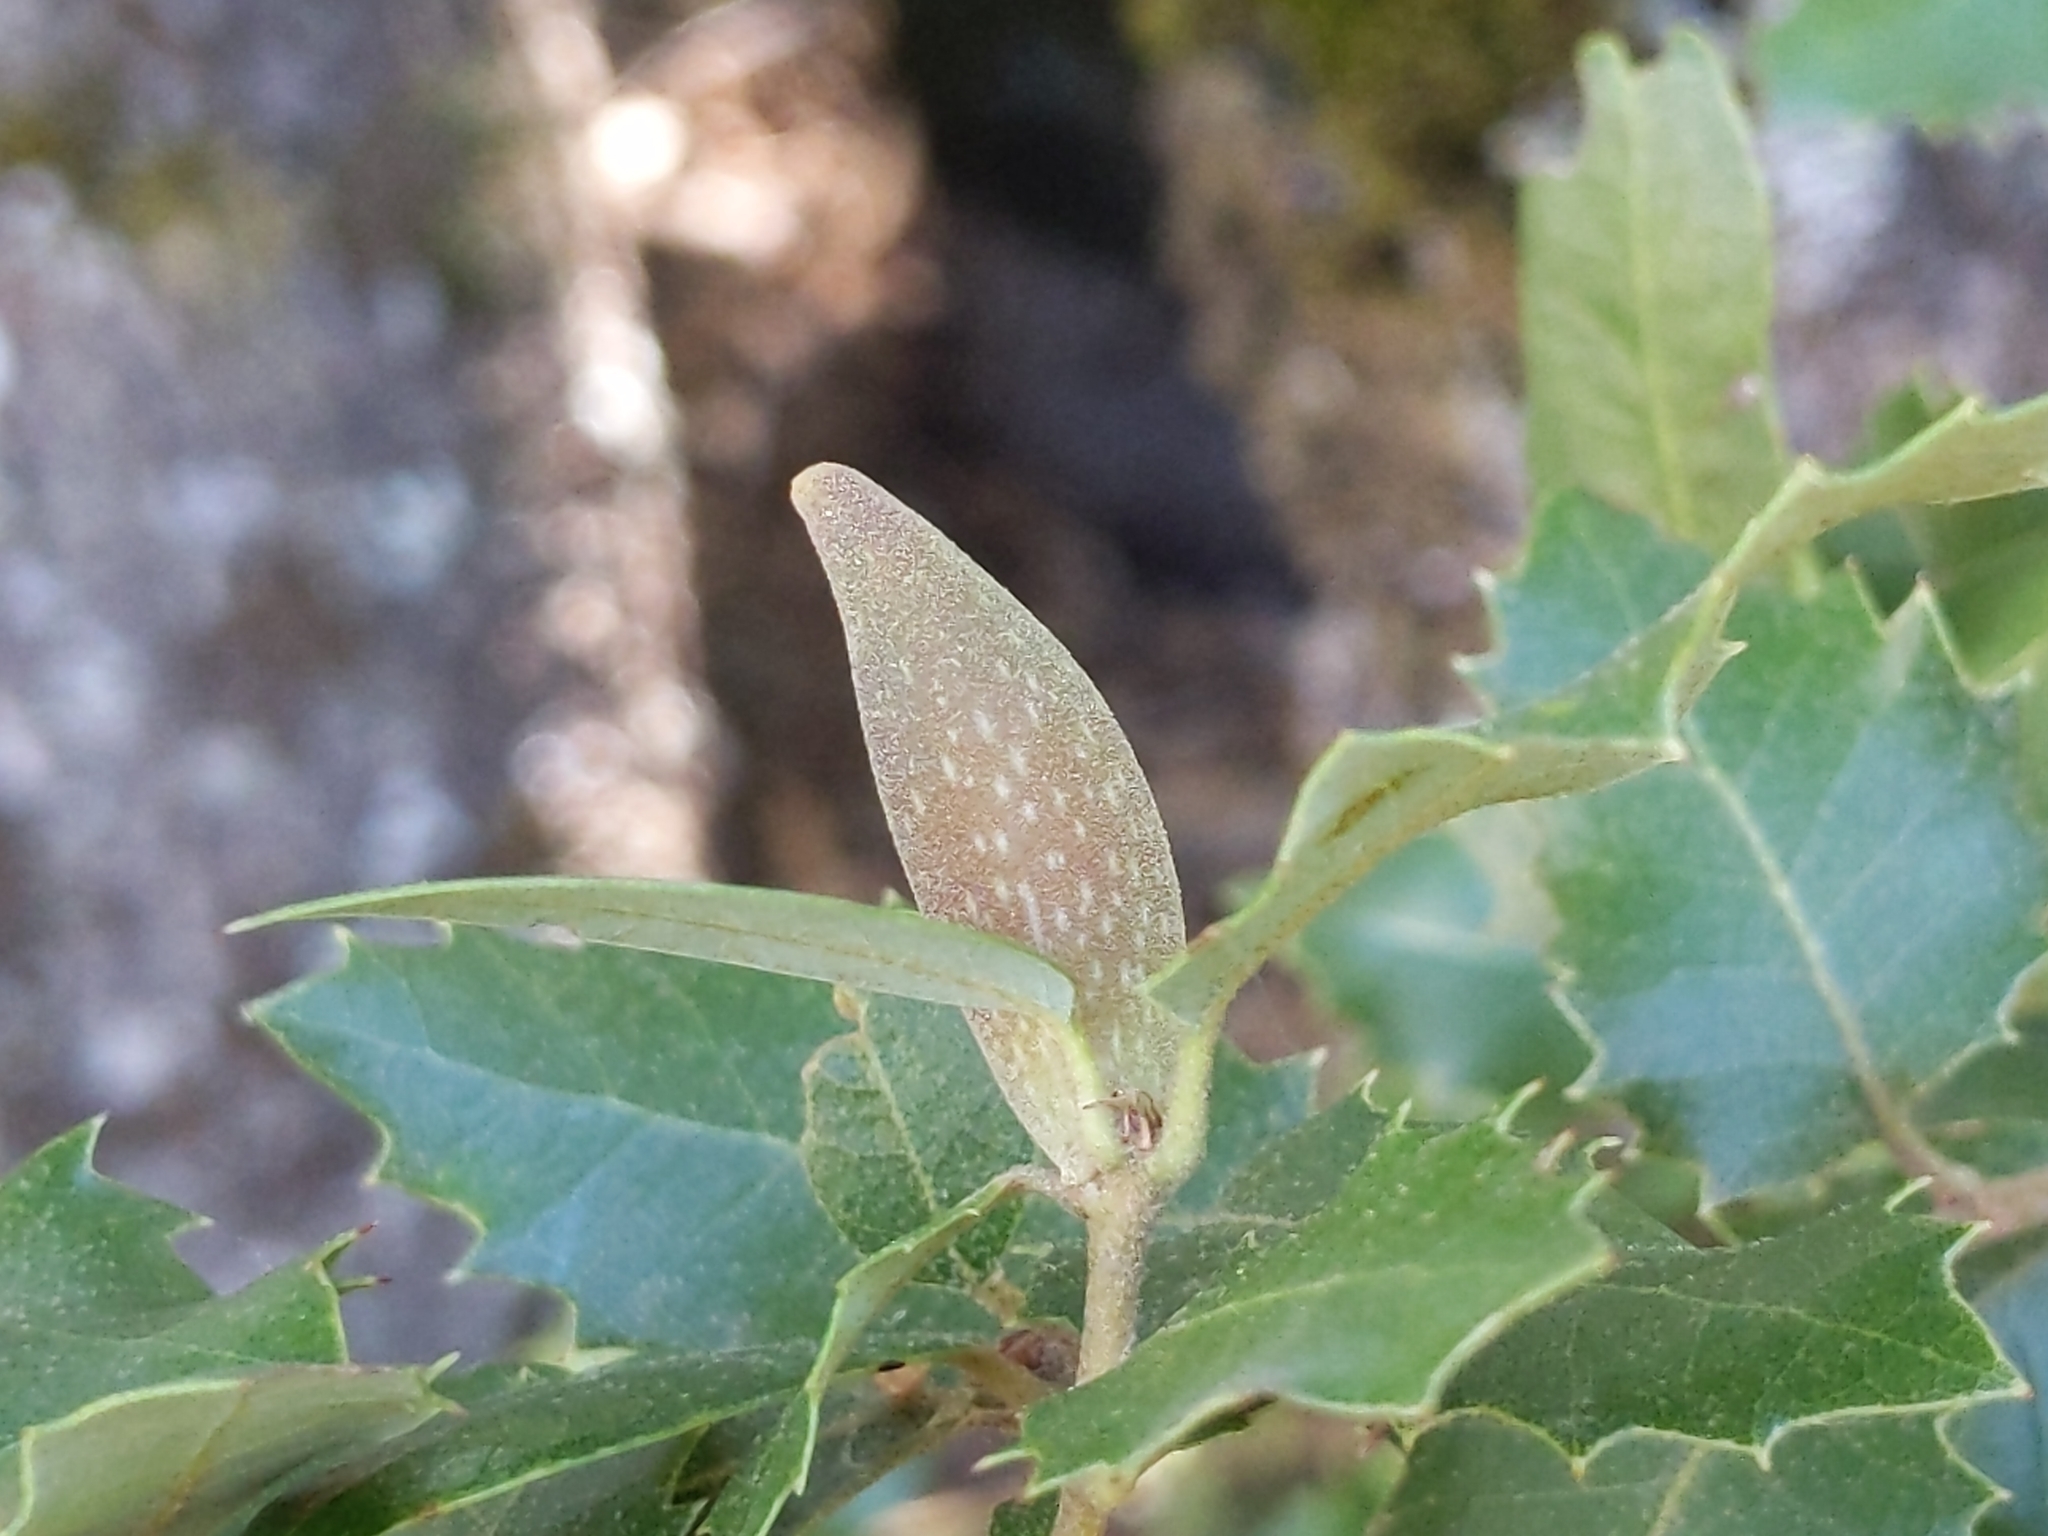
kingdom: Animalia
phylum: Arthropoda
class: Insecta
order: Hymenoptera
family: Cynipidae
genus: Heteroecus
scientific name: Heteroecus pacificus
